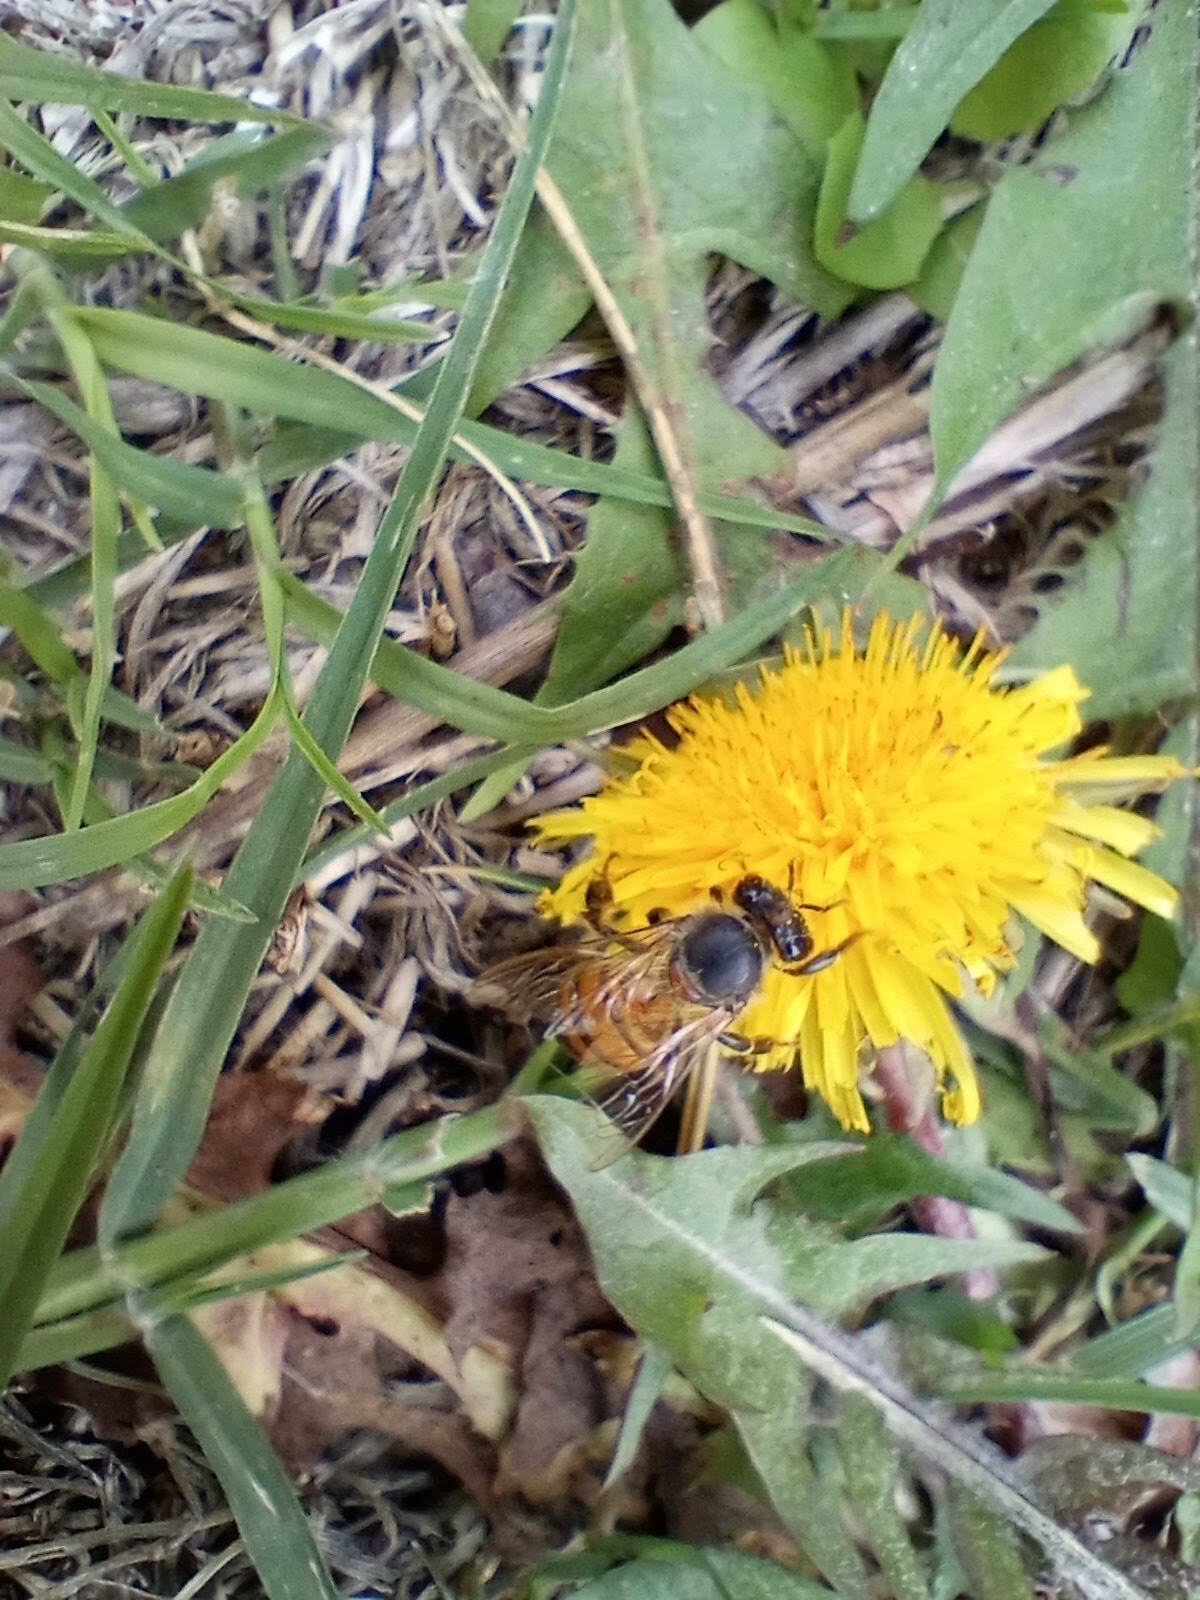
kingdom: Animalia
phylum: Arthropoda
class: Insecta
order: Hymenoptera
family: Apidae
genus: Apis
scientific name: Apis mellifera
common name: Honey bee
